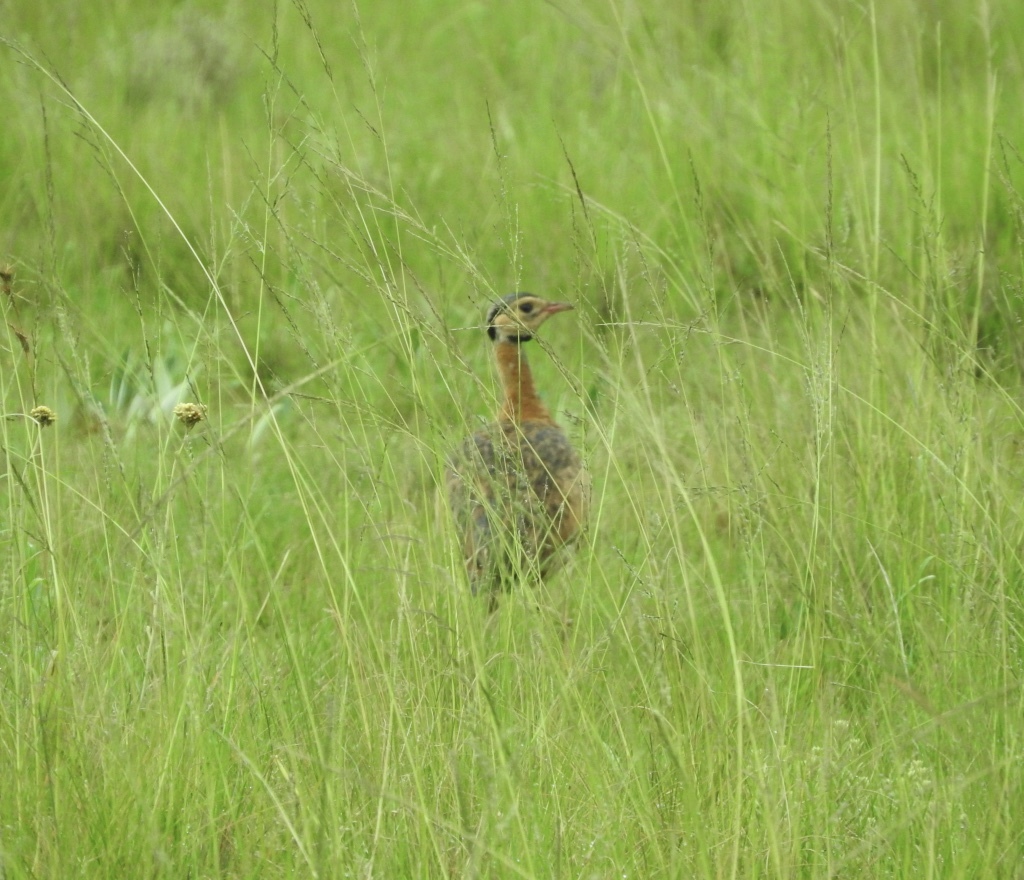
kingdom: Animalia
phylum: Chordata
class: Aves
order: Otidiformes
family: Otididae
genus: Eupodotis
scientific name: Eupodotis senegalensis
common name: White-bellied bustard
